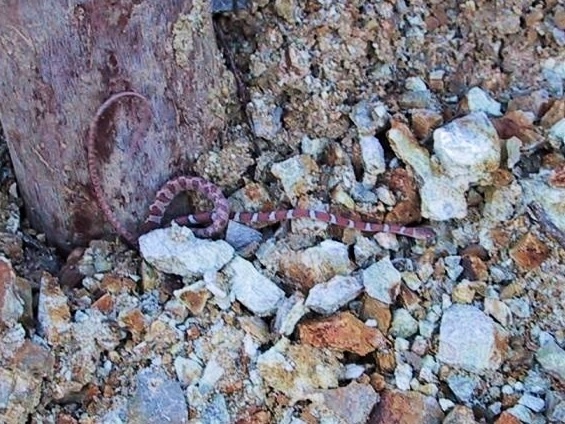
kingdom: Animalia
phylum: Chordata
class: Squamata
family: Colubridae
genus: Imantodes
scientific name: Imantodes gemmistratus
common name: Central american tree snake
